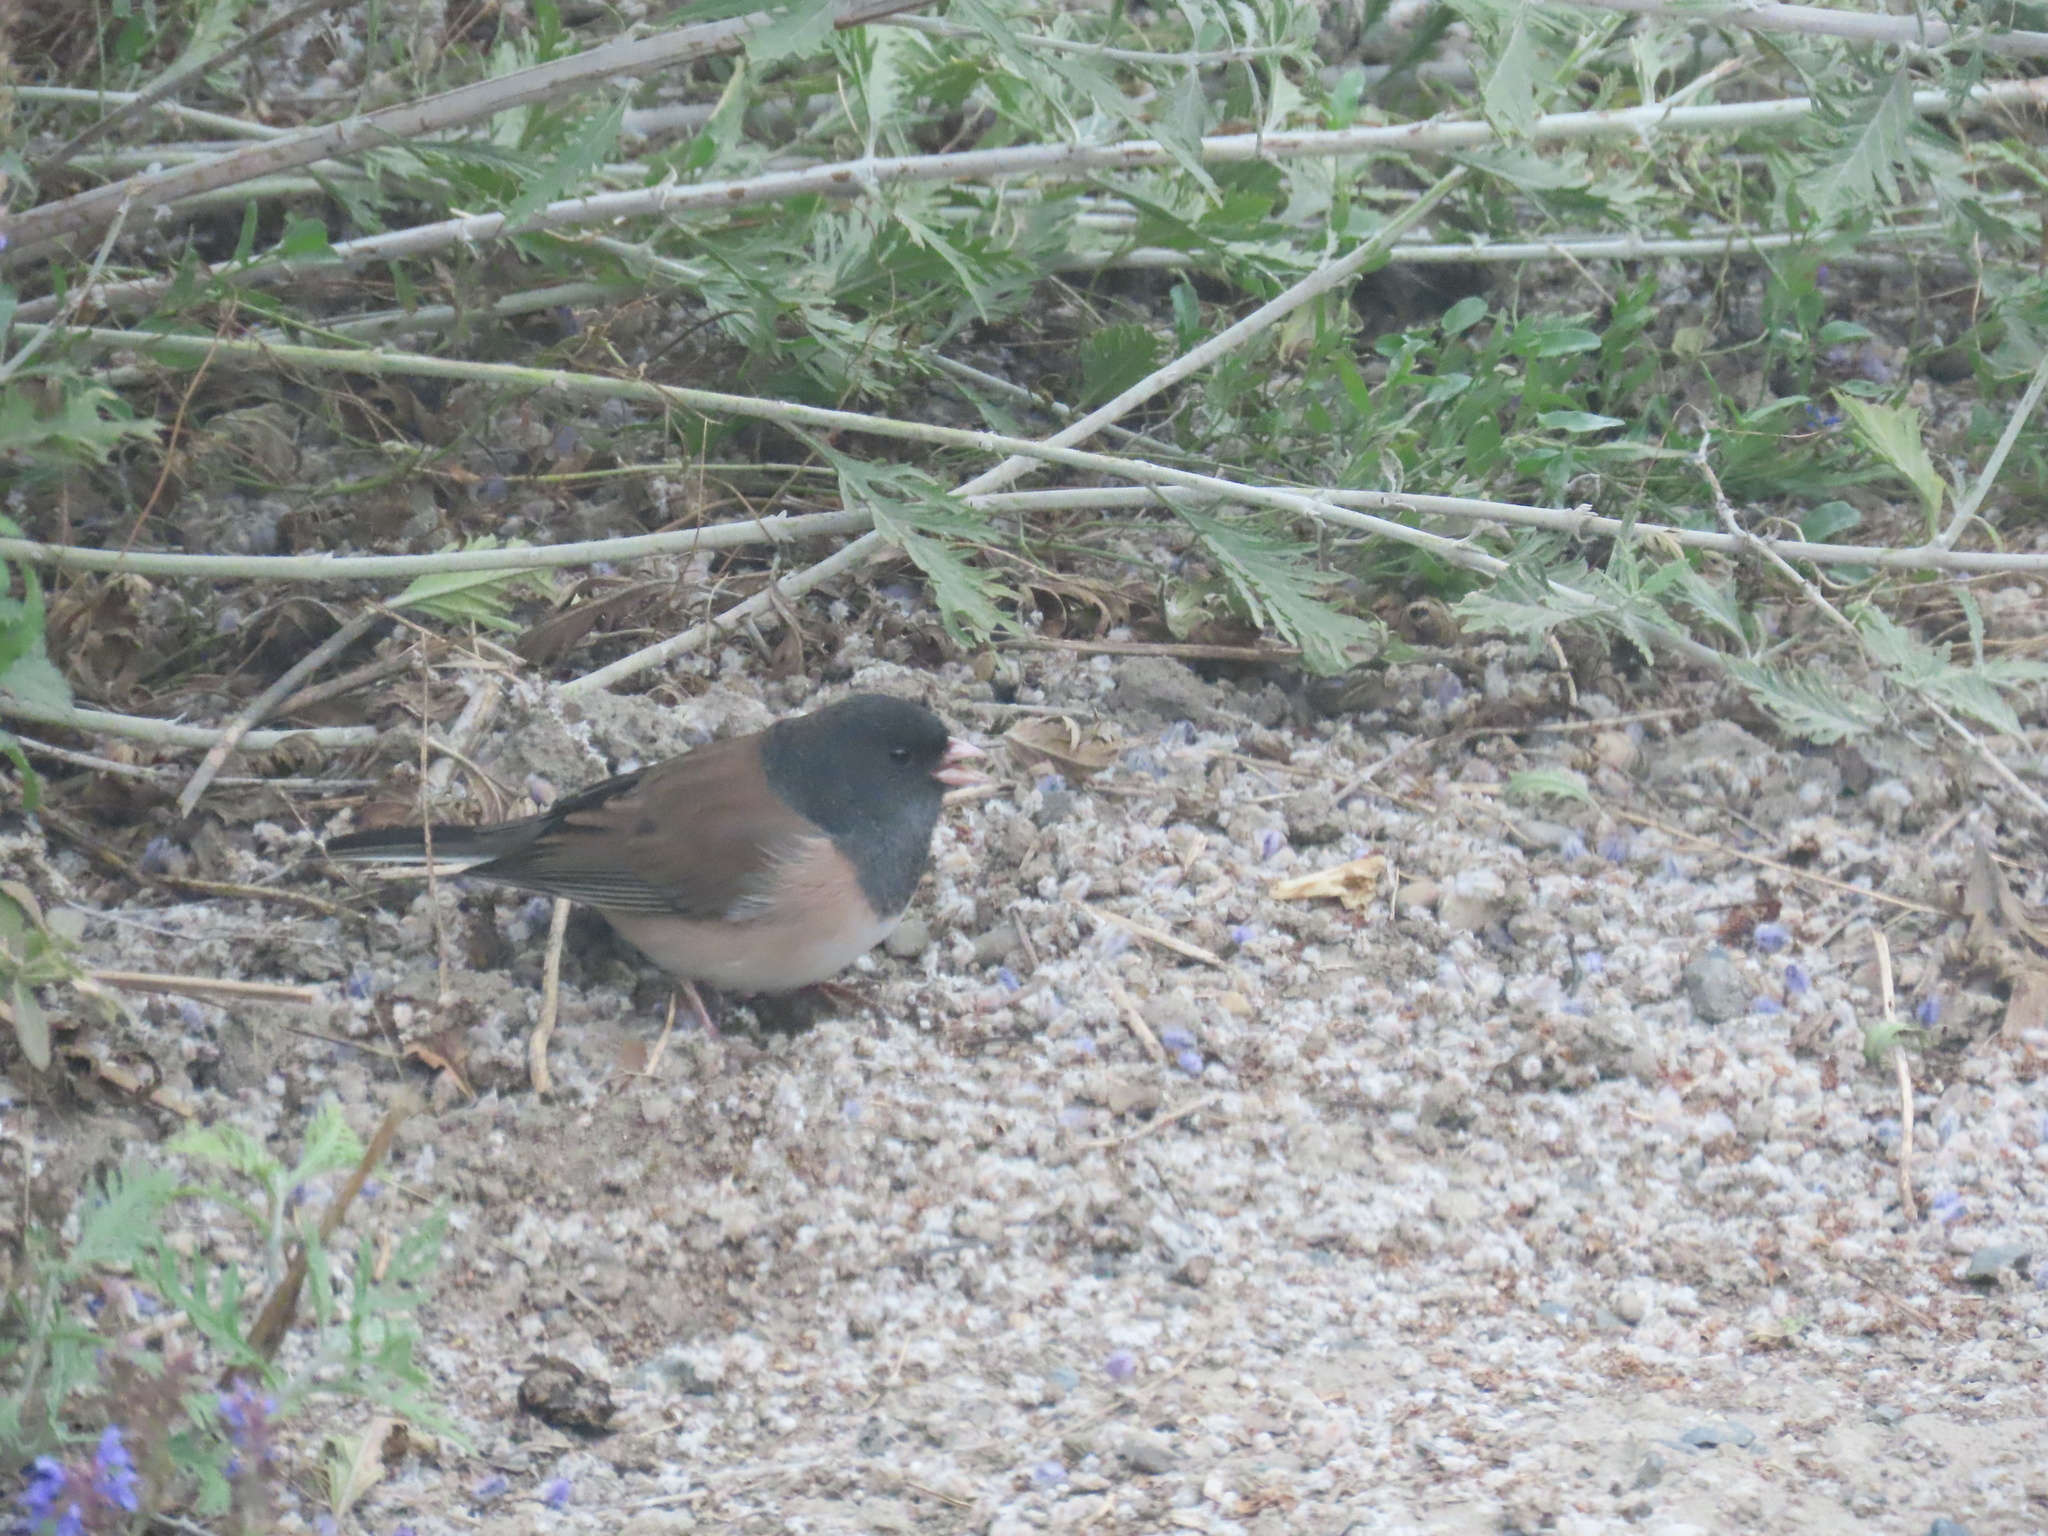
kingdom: Animalia
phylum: Chordata
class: Aves
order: Passeriformes
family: Passerellidae
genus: Junco
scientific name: Junco hyemalis
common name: Dark-eyed junco
